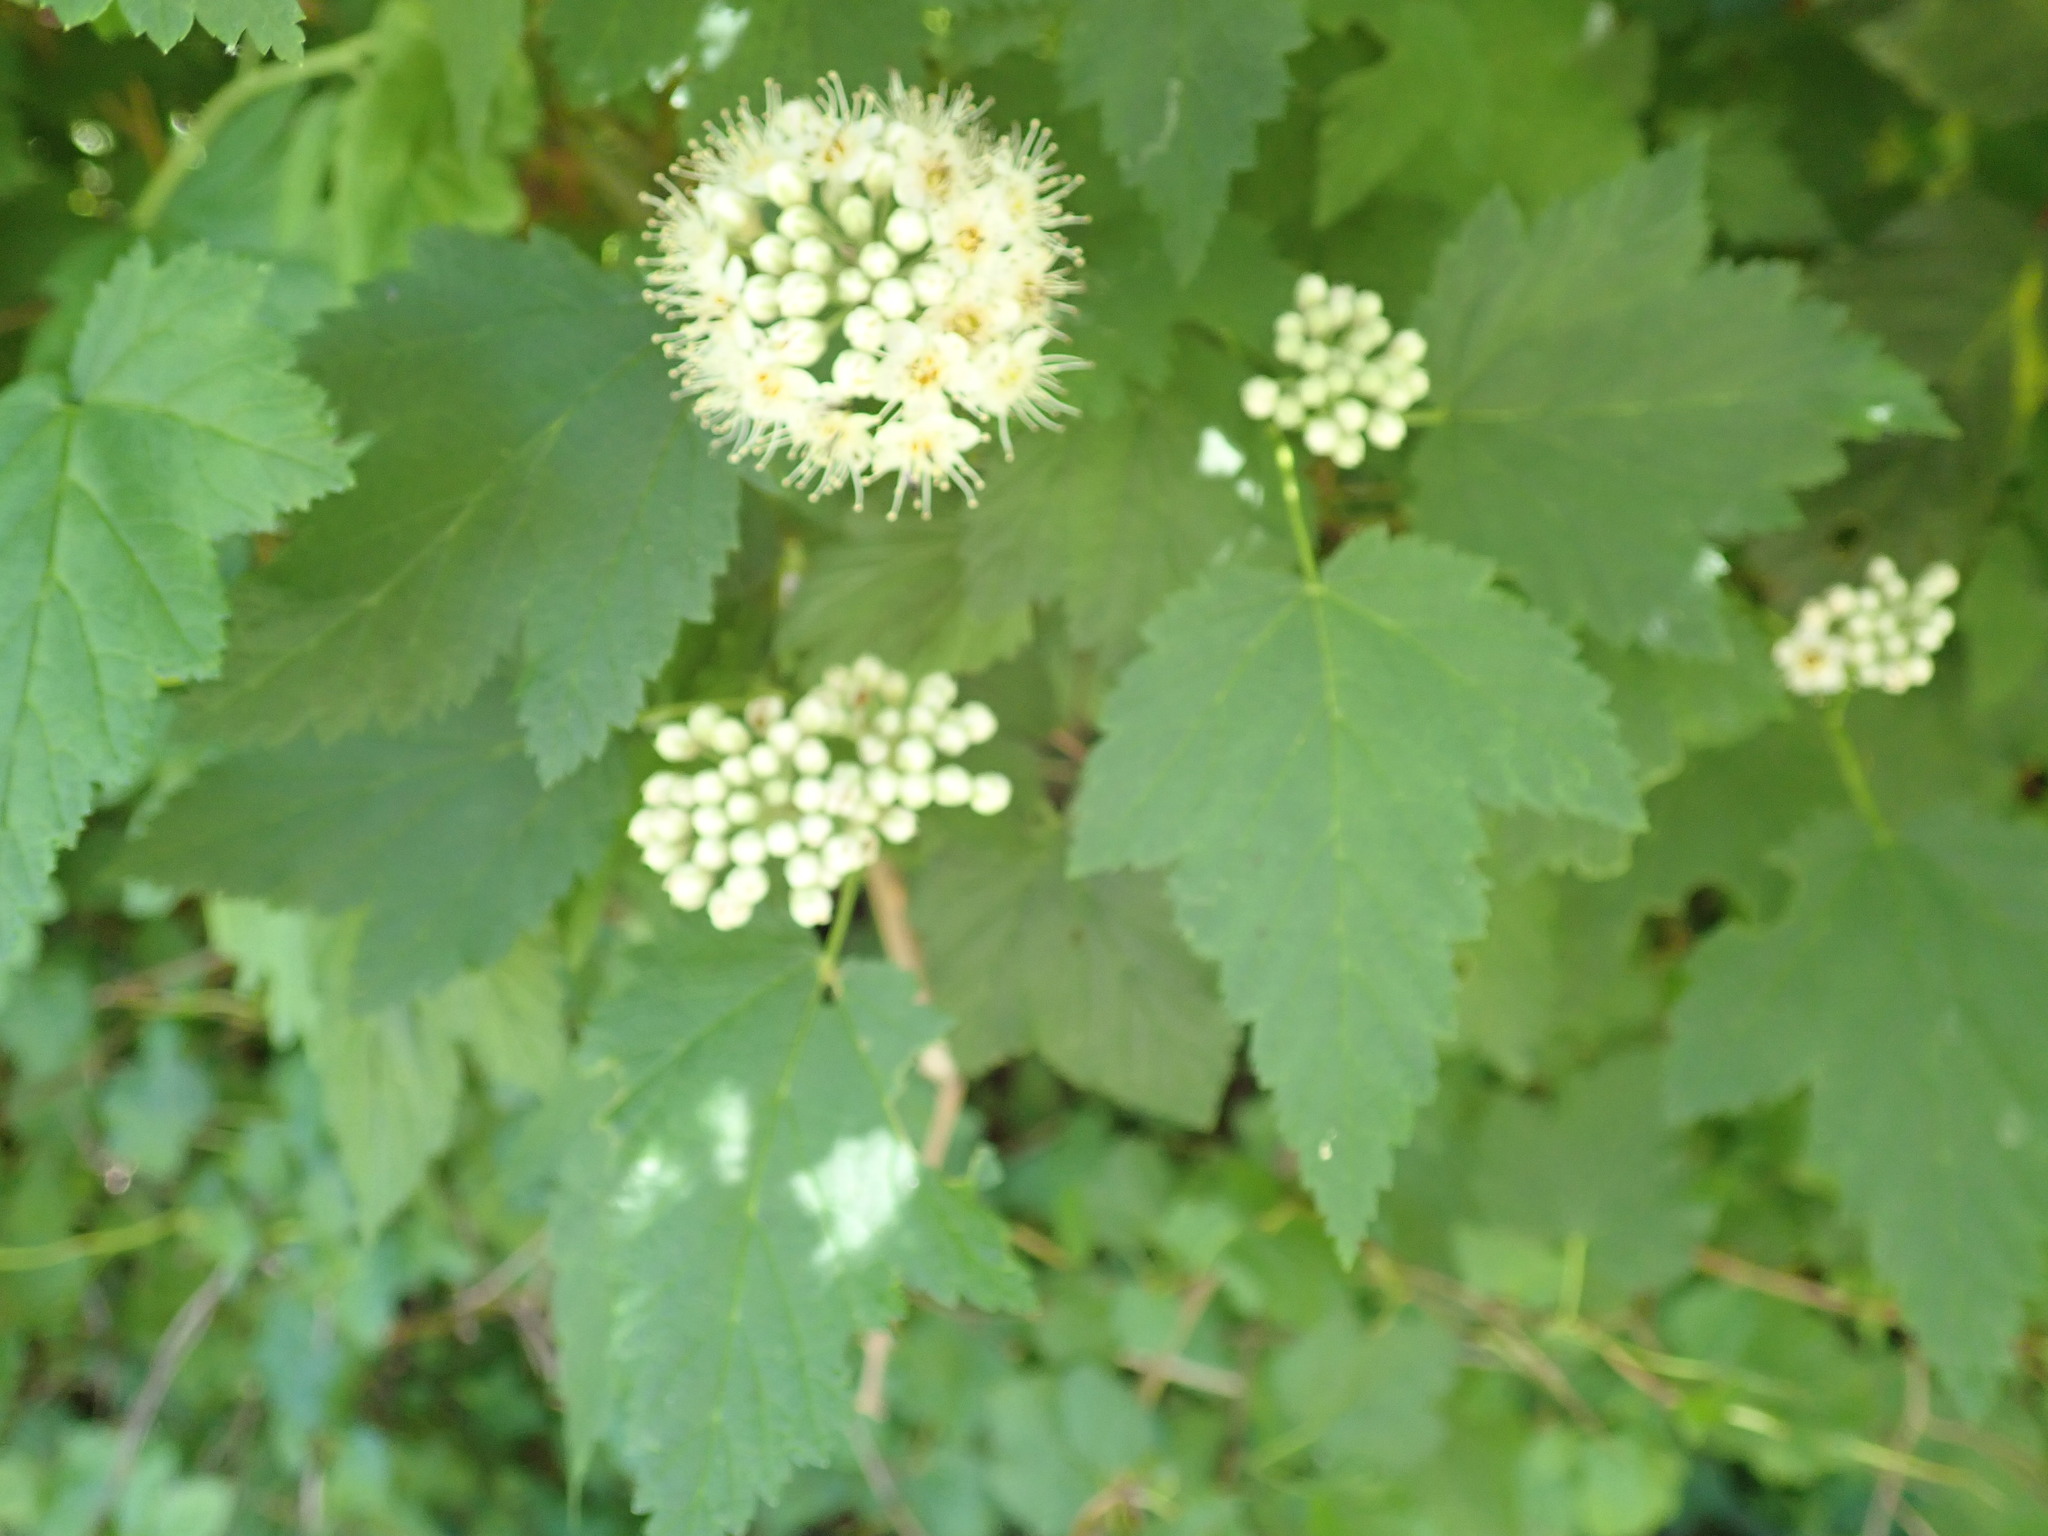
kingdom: Plantae
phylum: Tracheophyta
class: Magnoliopsida
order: Rosales
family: Rosaceae
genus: Physocarpus
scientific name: Physocarpus capitatus
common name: Pacific ninebark
